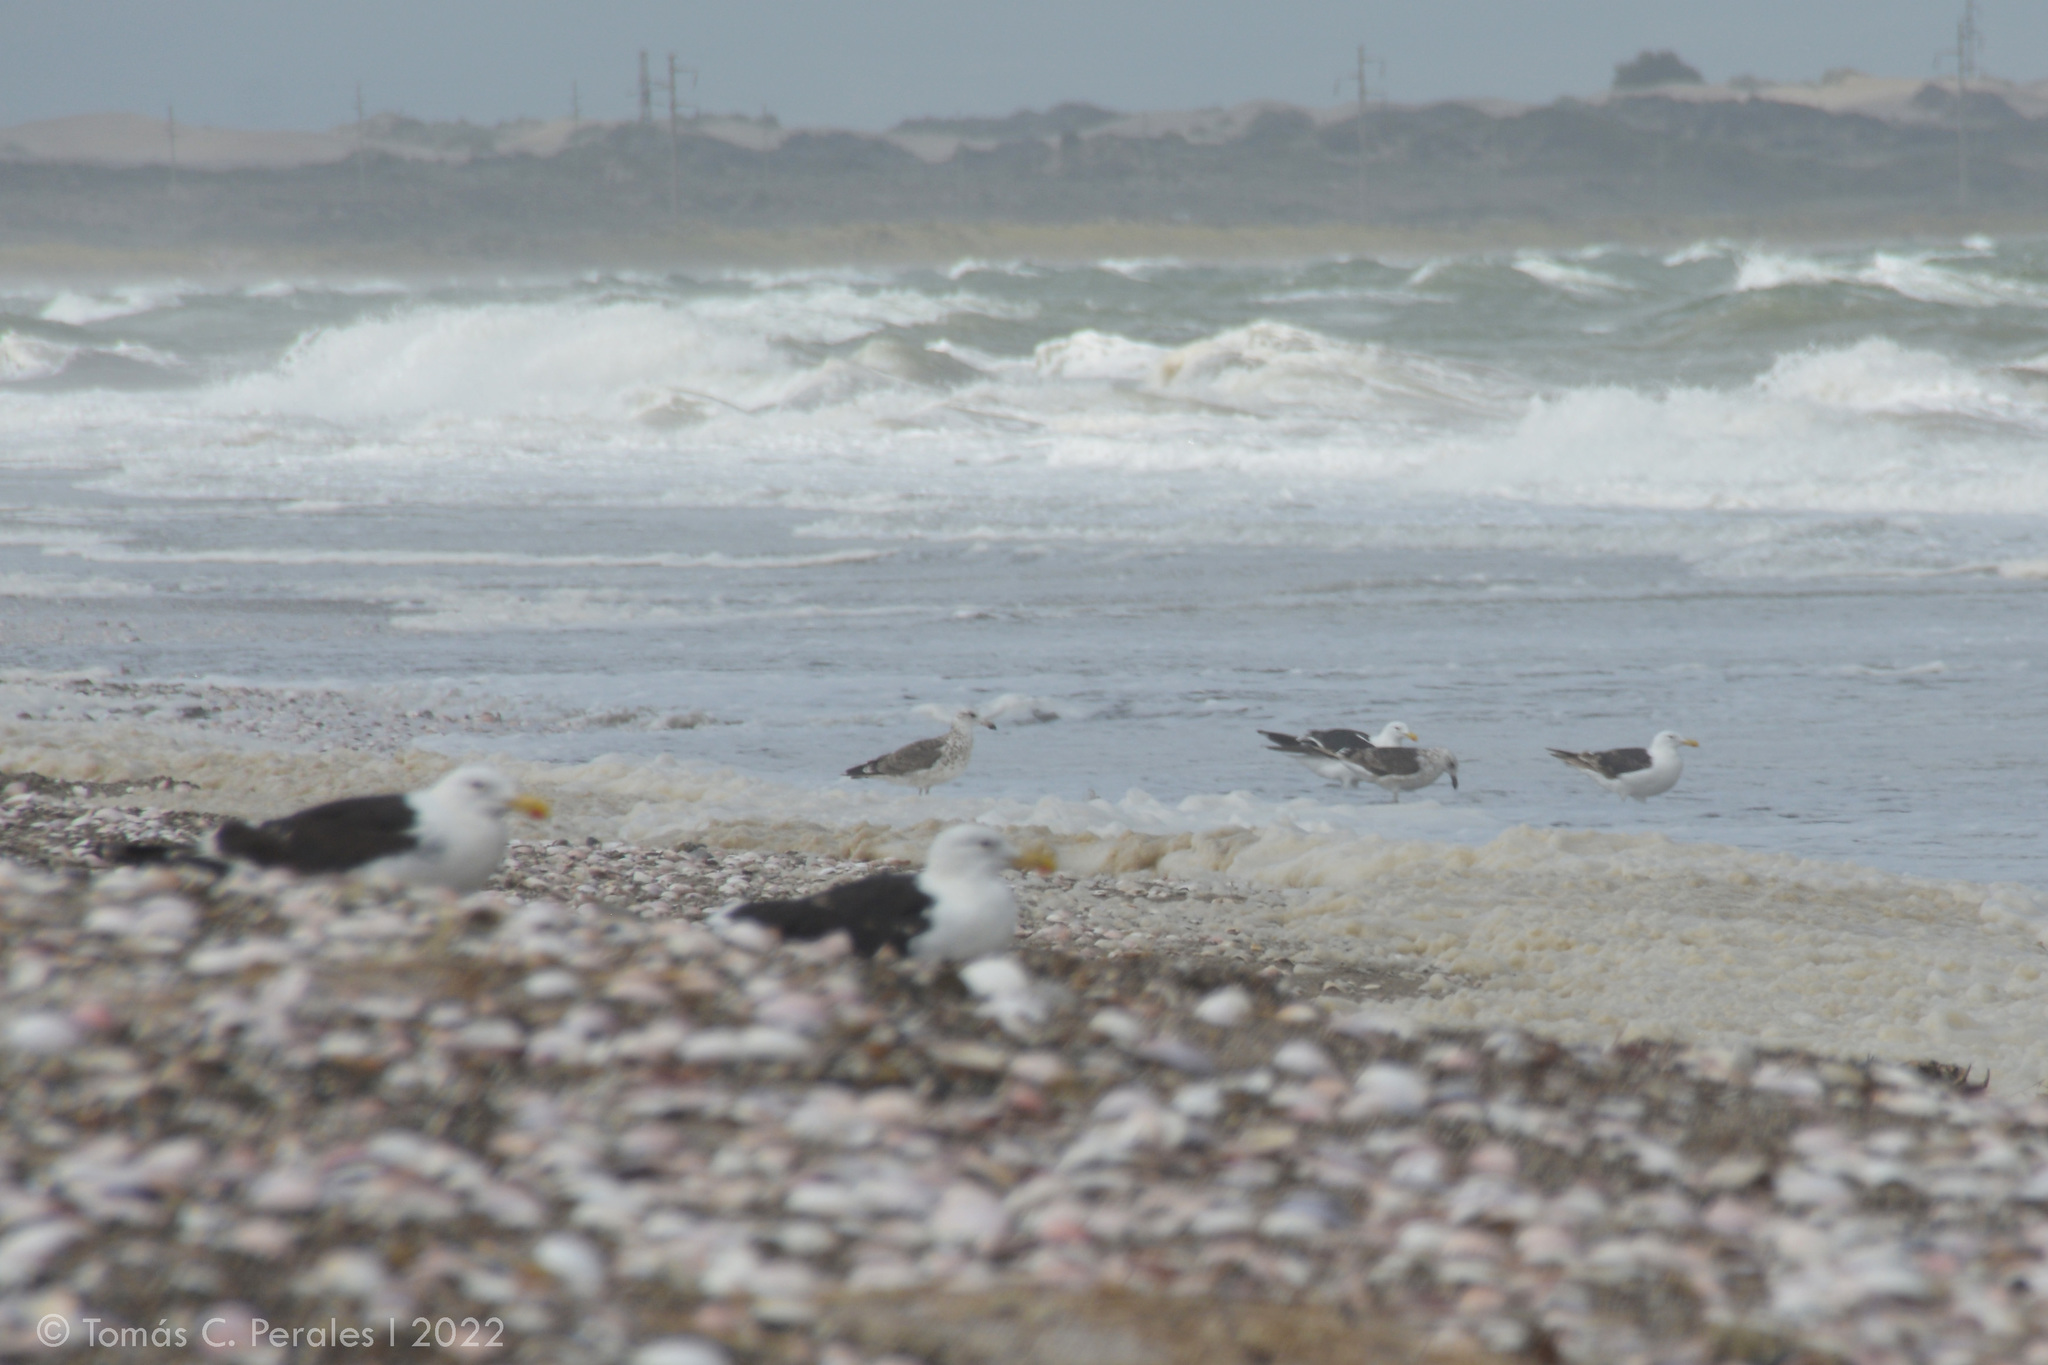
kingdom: Animalia
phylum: Chordata
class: Aves
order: Charadriiformes
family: Laridae
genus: Larus
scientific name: Larus dominicanus
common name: Kelp gull
